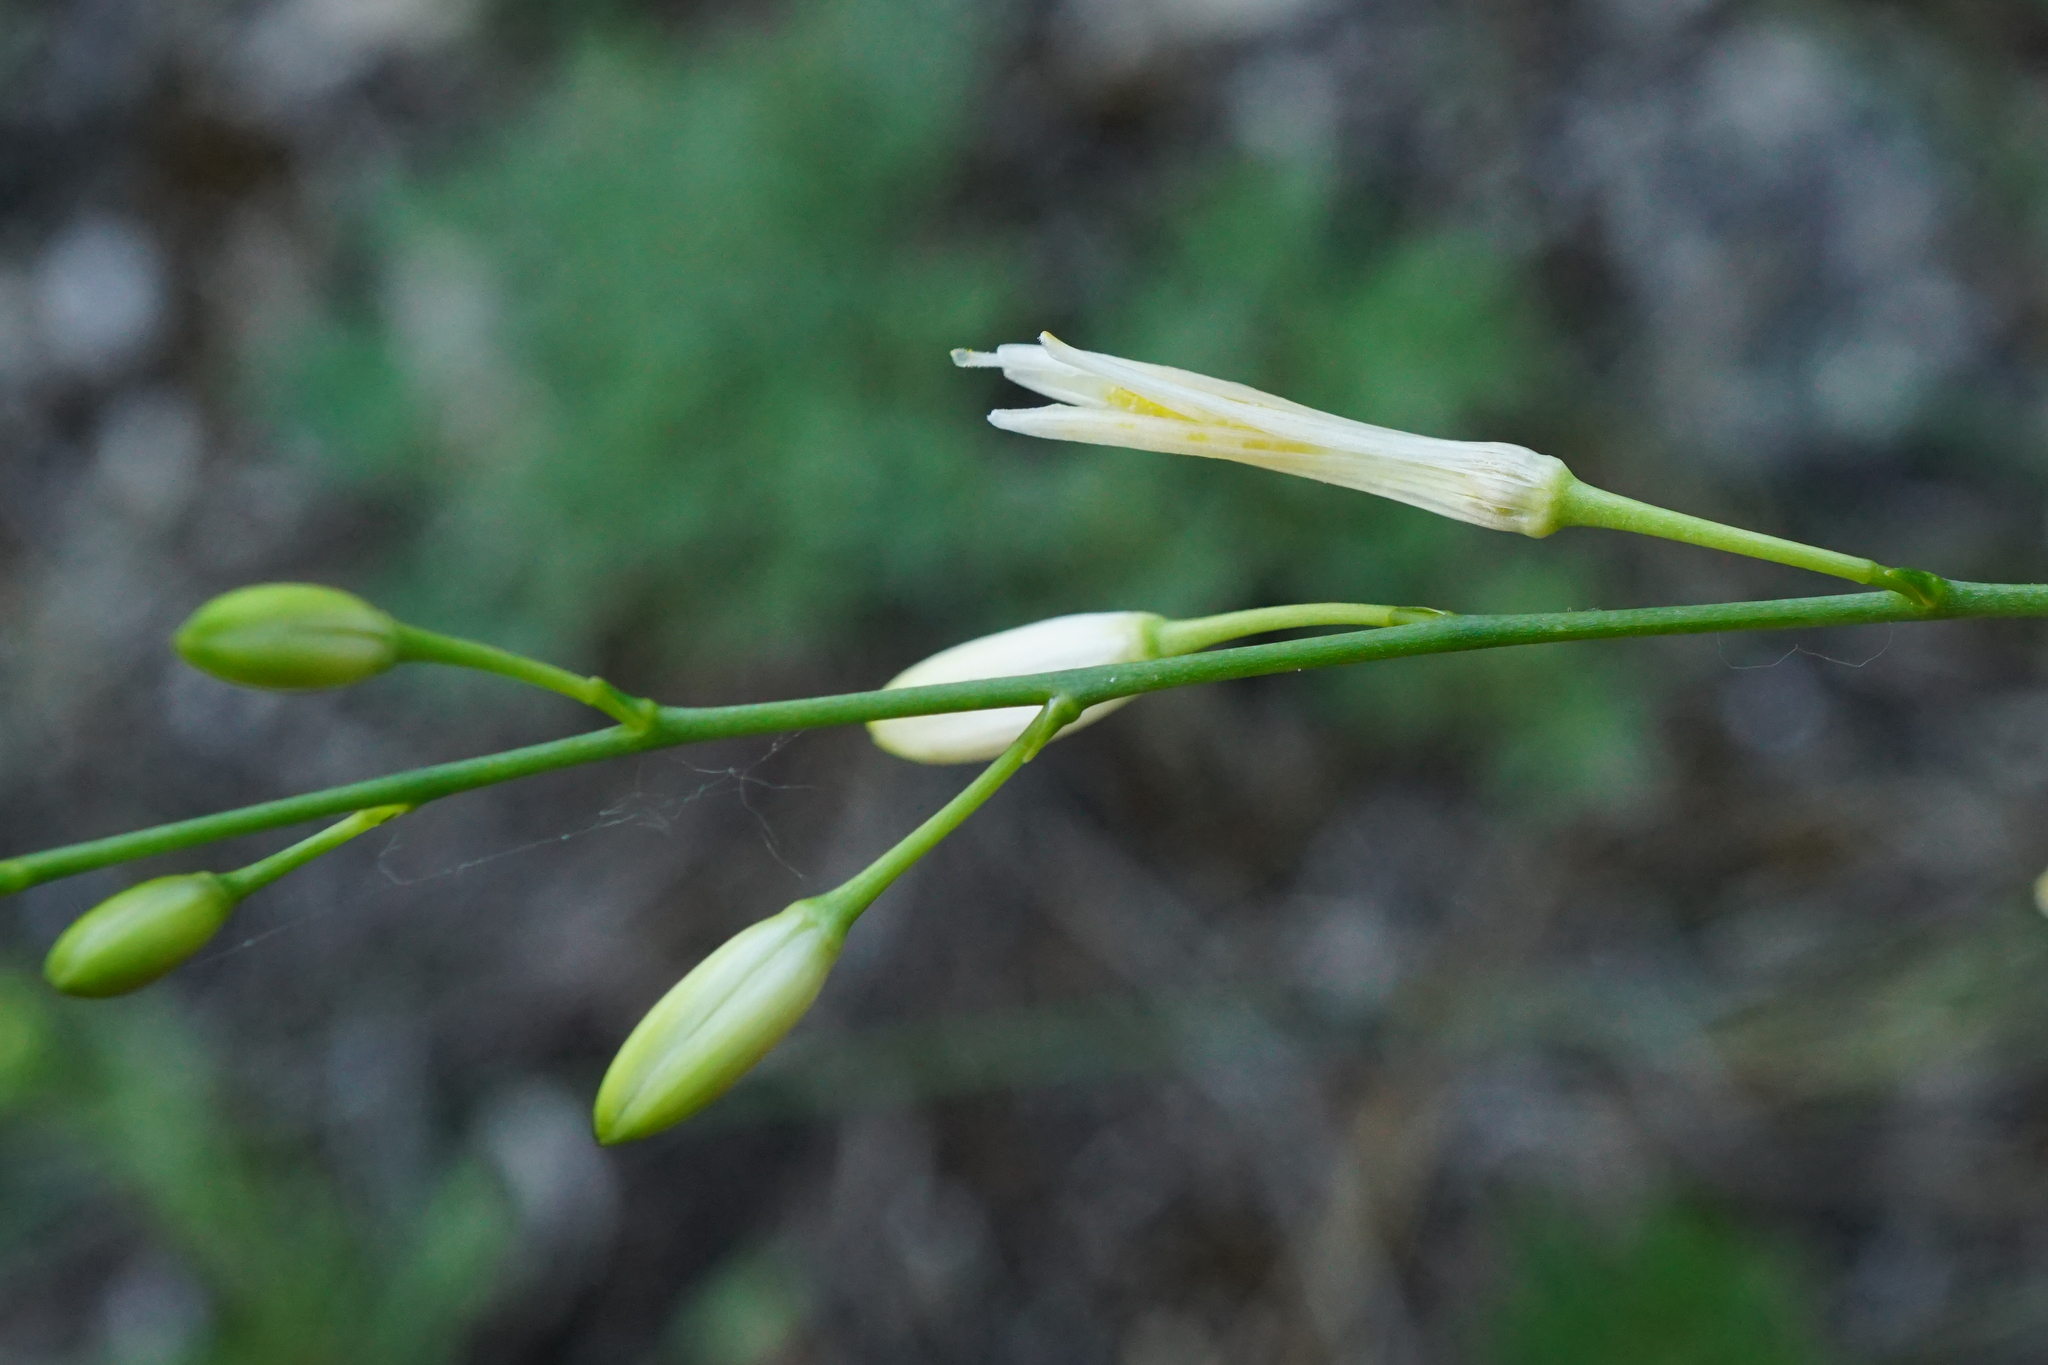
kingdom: Plantae
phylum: Tracheophyta
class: Liliopsida
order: Asparagales
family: Asparagaceae
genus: Anthericum
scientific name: Anthericum ramosum
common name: Branched st. bernard's-lily
